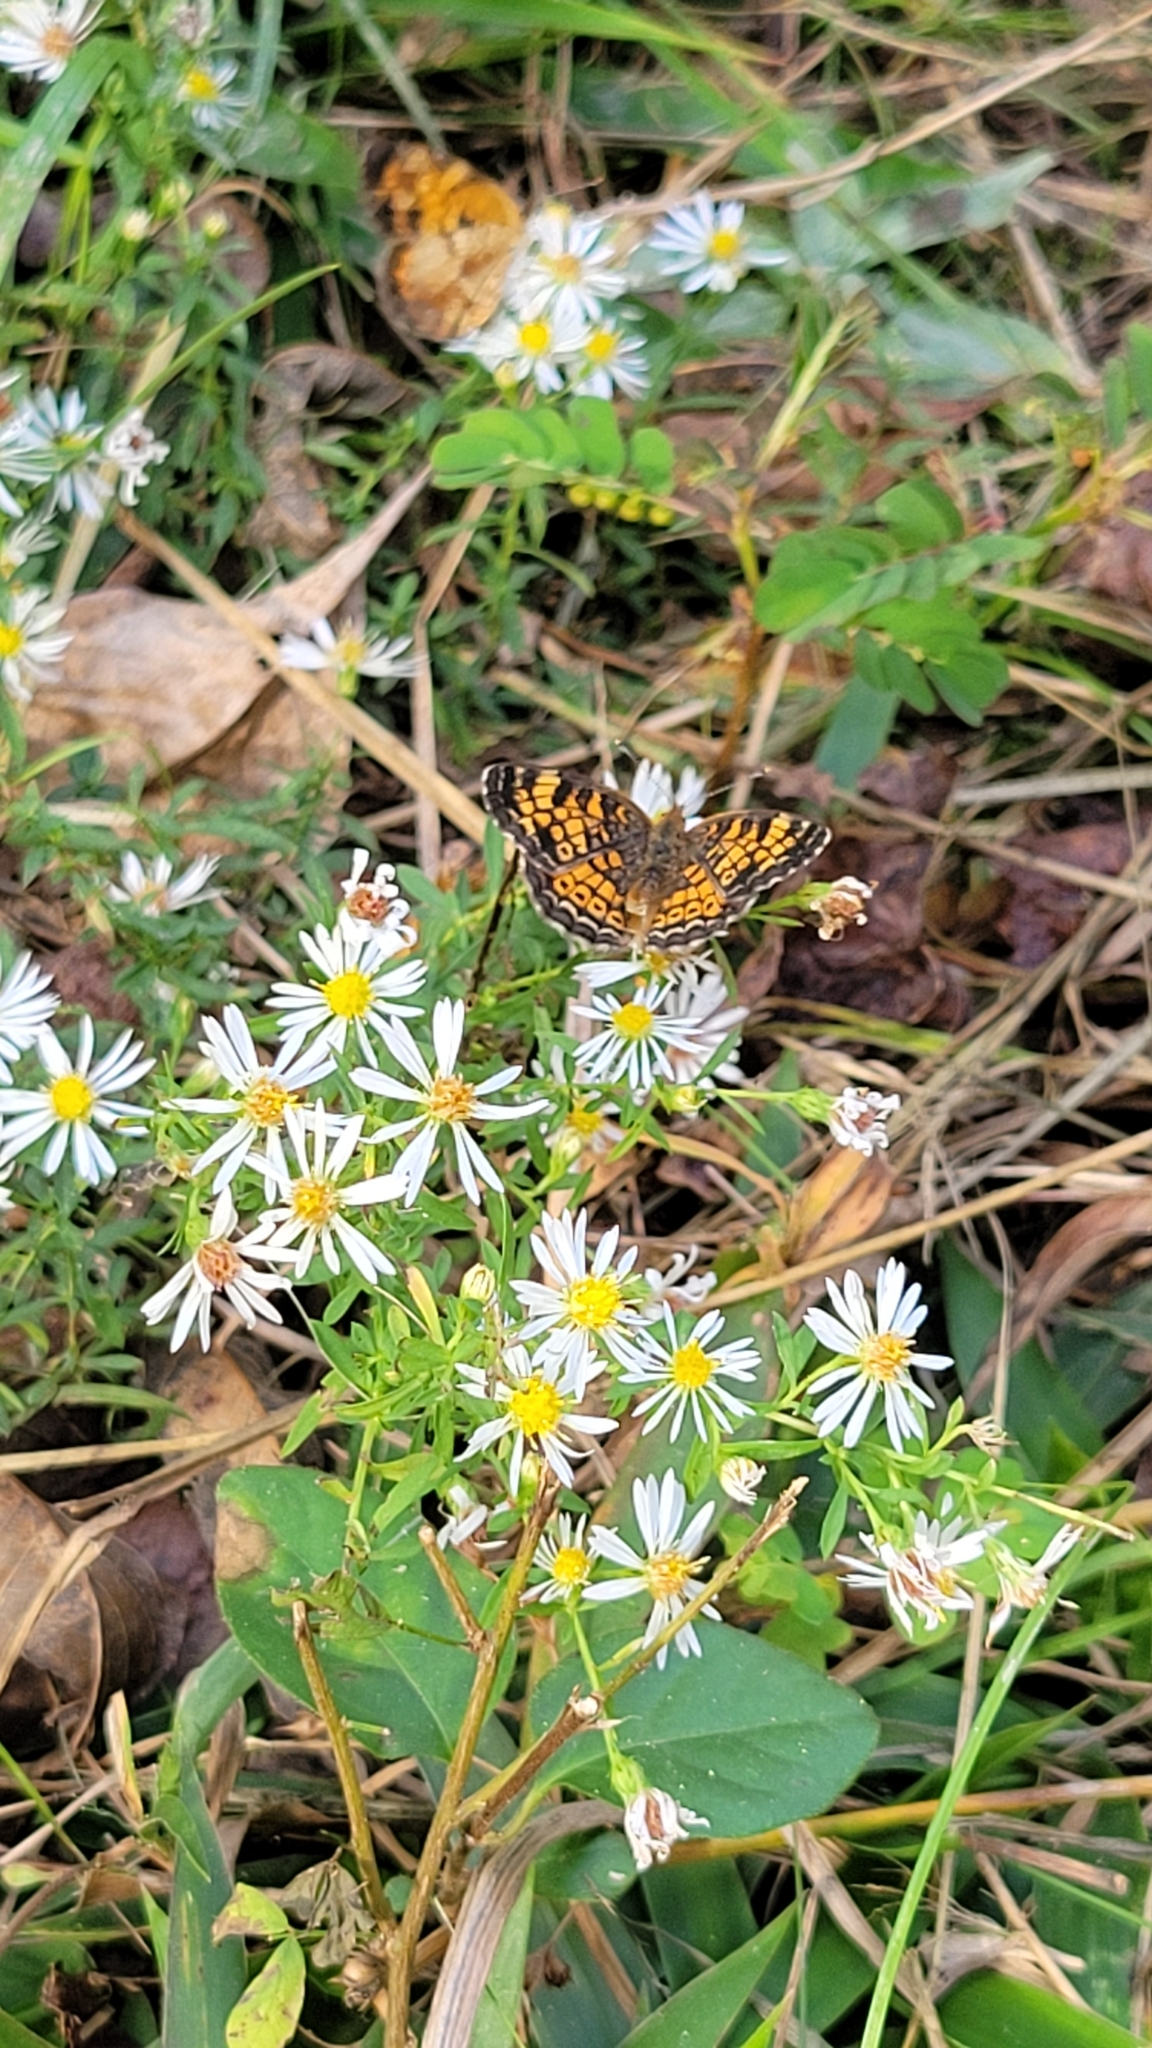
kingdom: Animalia
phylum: Arthropoda
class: Insecta
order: Lepidoptera
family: Nymphalidae
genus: Phyciodes
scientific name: Phyciodes tharos
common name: Pearl crescent
